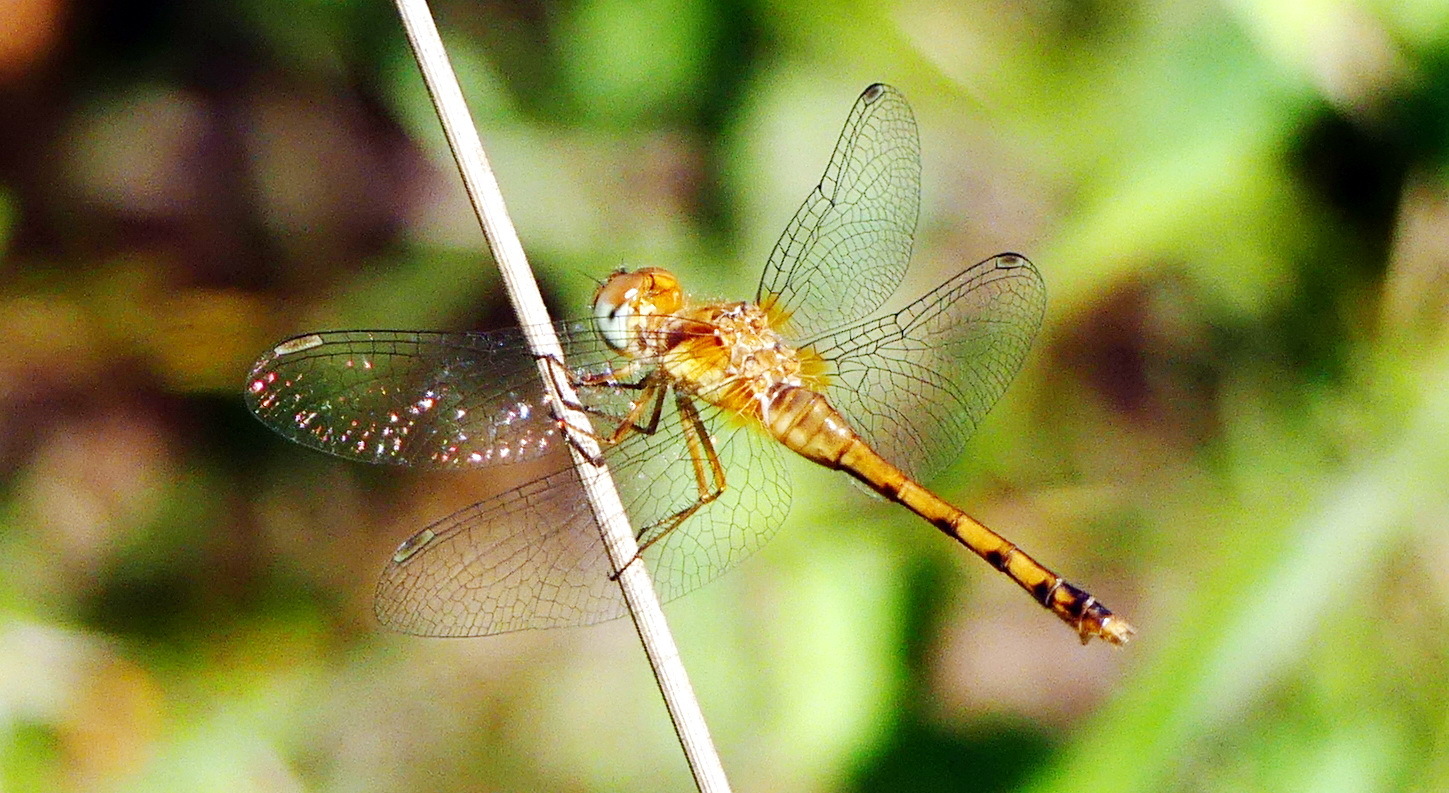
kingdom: Animalia
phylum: Arthropoda
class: Insecta
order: Odonata
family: Libellulidae
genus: Sympetrum
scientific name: Sympetrum vicinum
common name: Autumn meadowhawk
